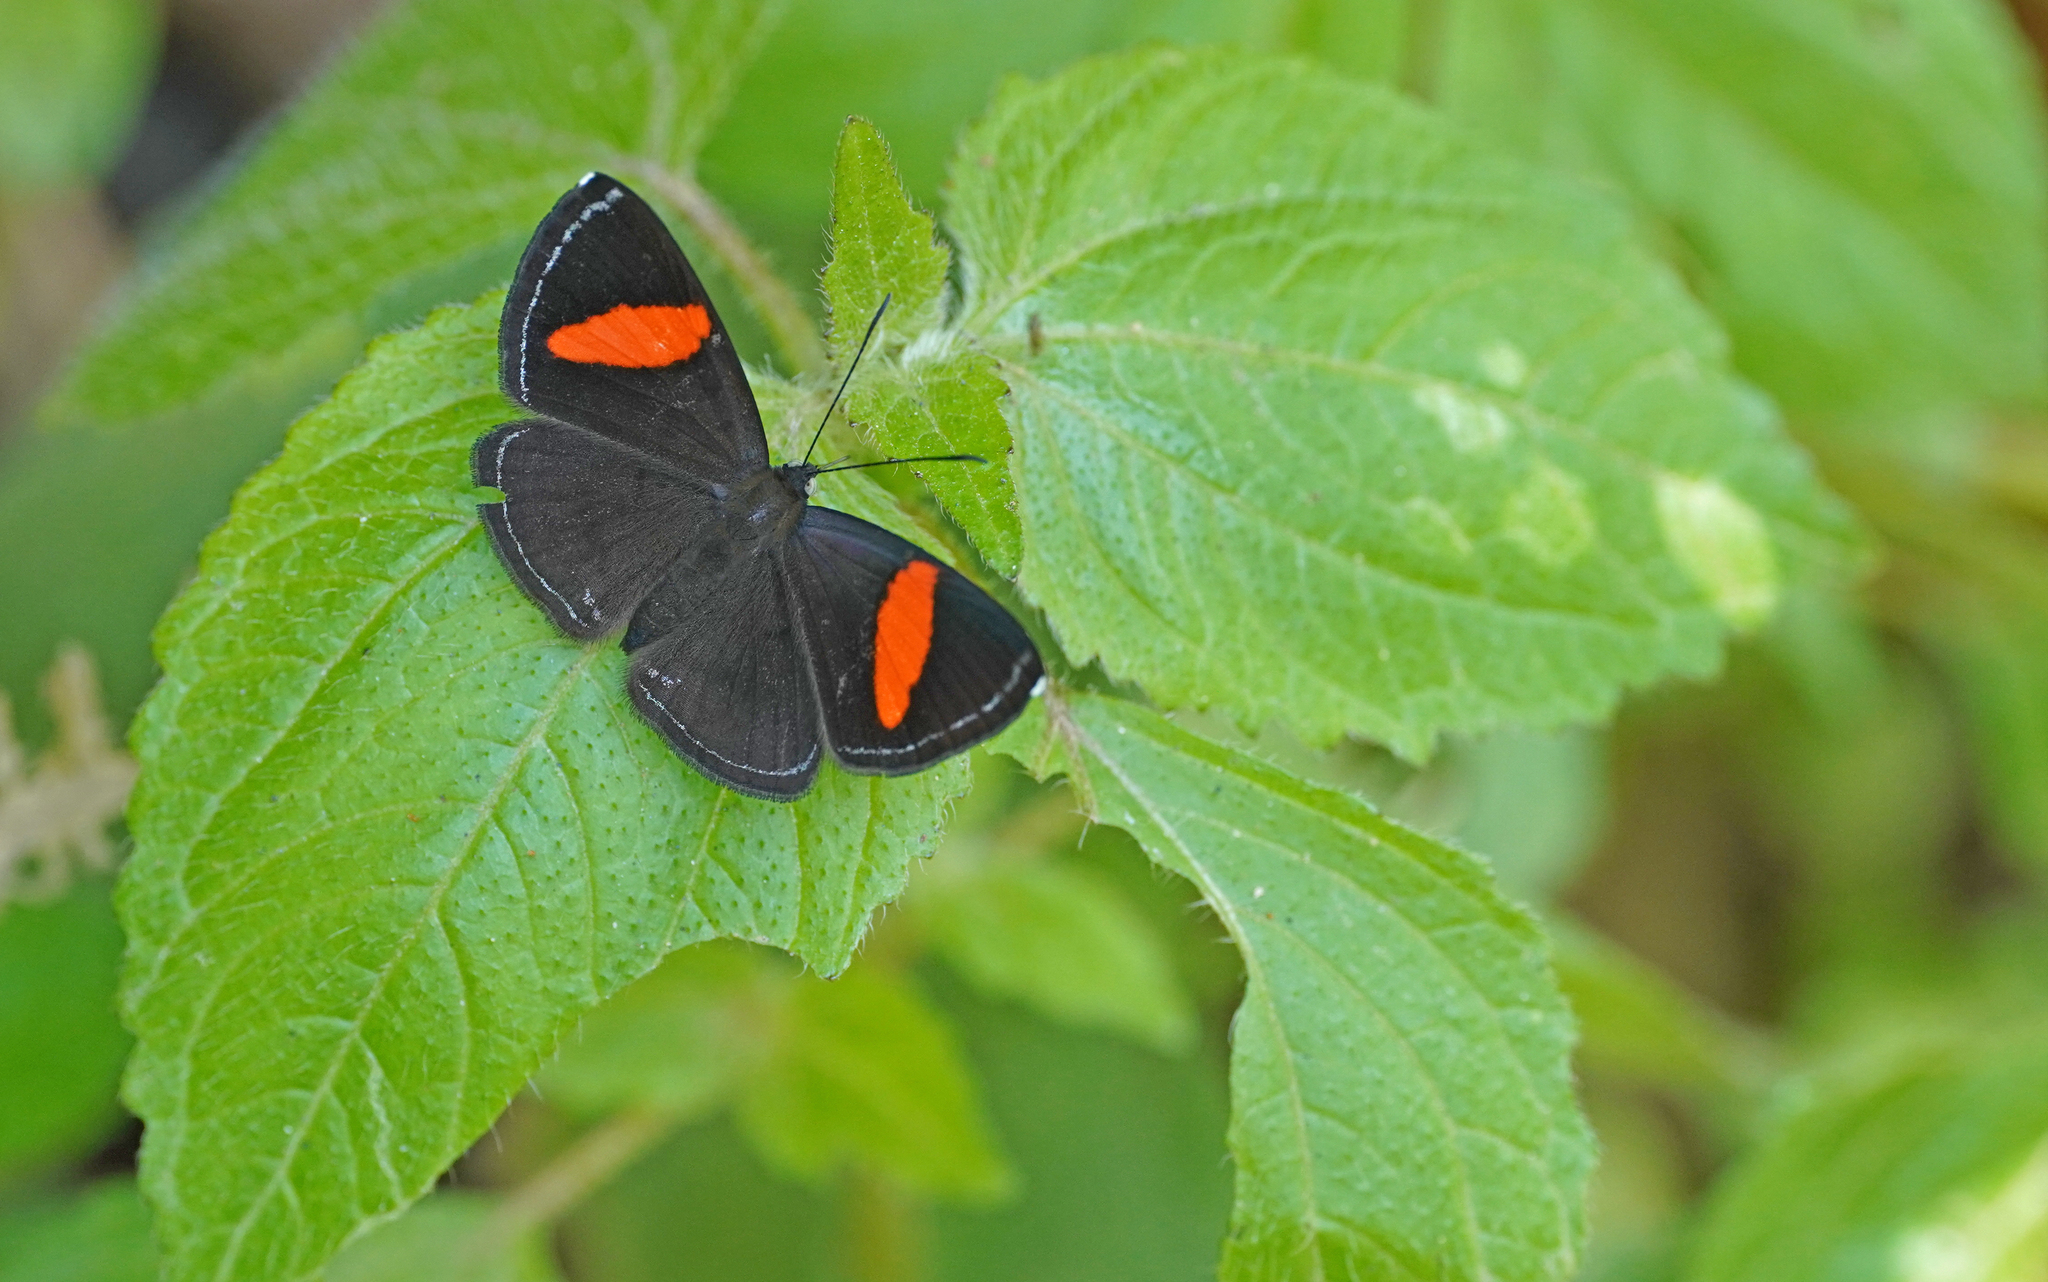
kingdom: Animalia
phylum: Arthropoda
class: Insecta
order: Lepidoptera
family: Riodinidae
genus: Crocozona
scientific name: Crocozona fasciata
